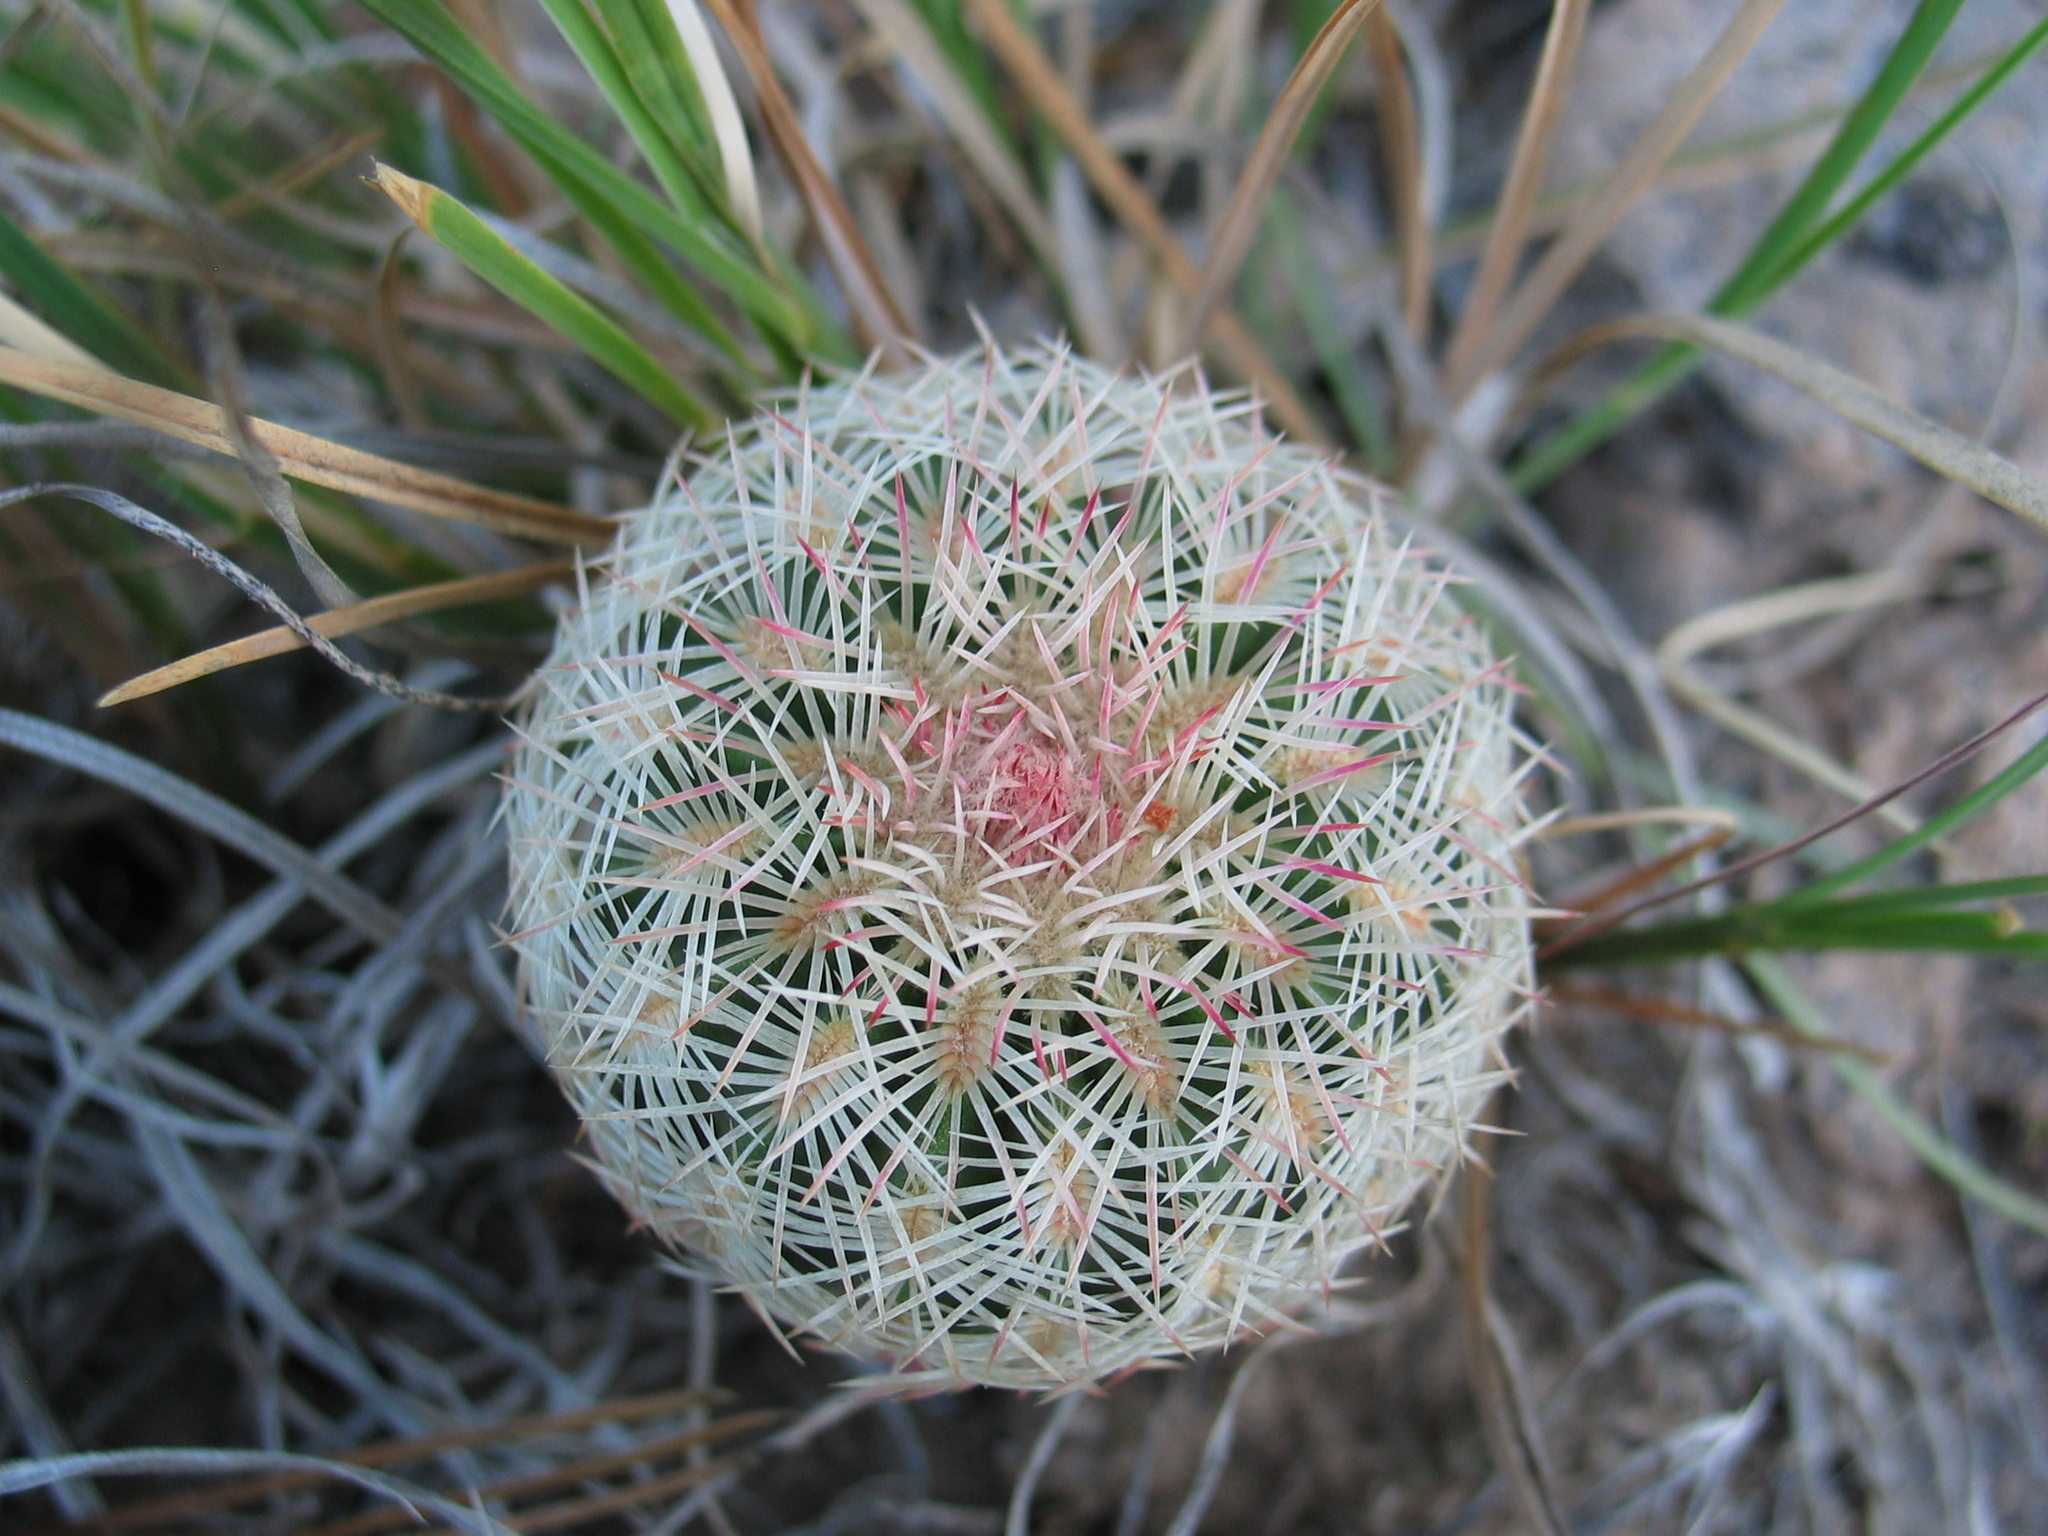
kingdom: Plantae
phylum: Tracheophyta
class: Magnoliopsida
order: Caryophyllales
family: Cactaceae
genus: Echinocereus
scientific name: Echinocereus rigidissimus
